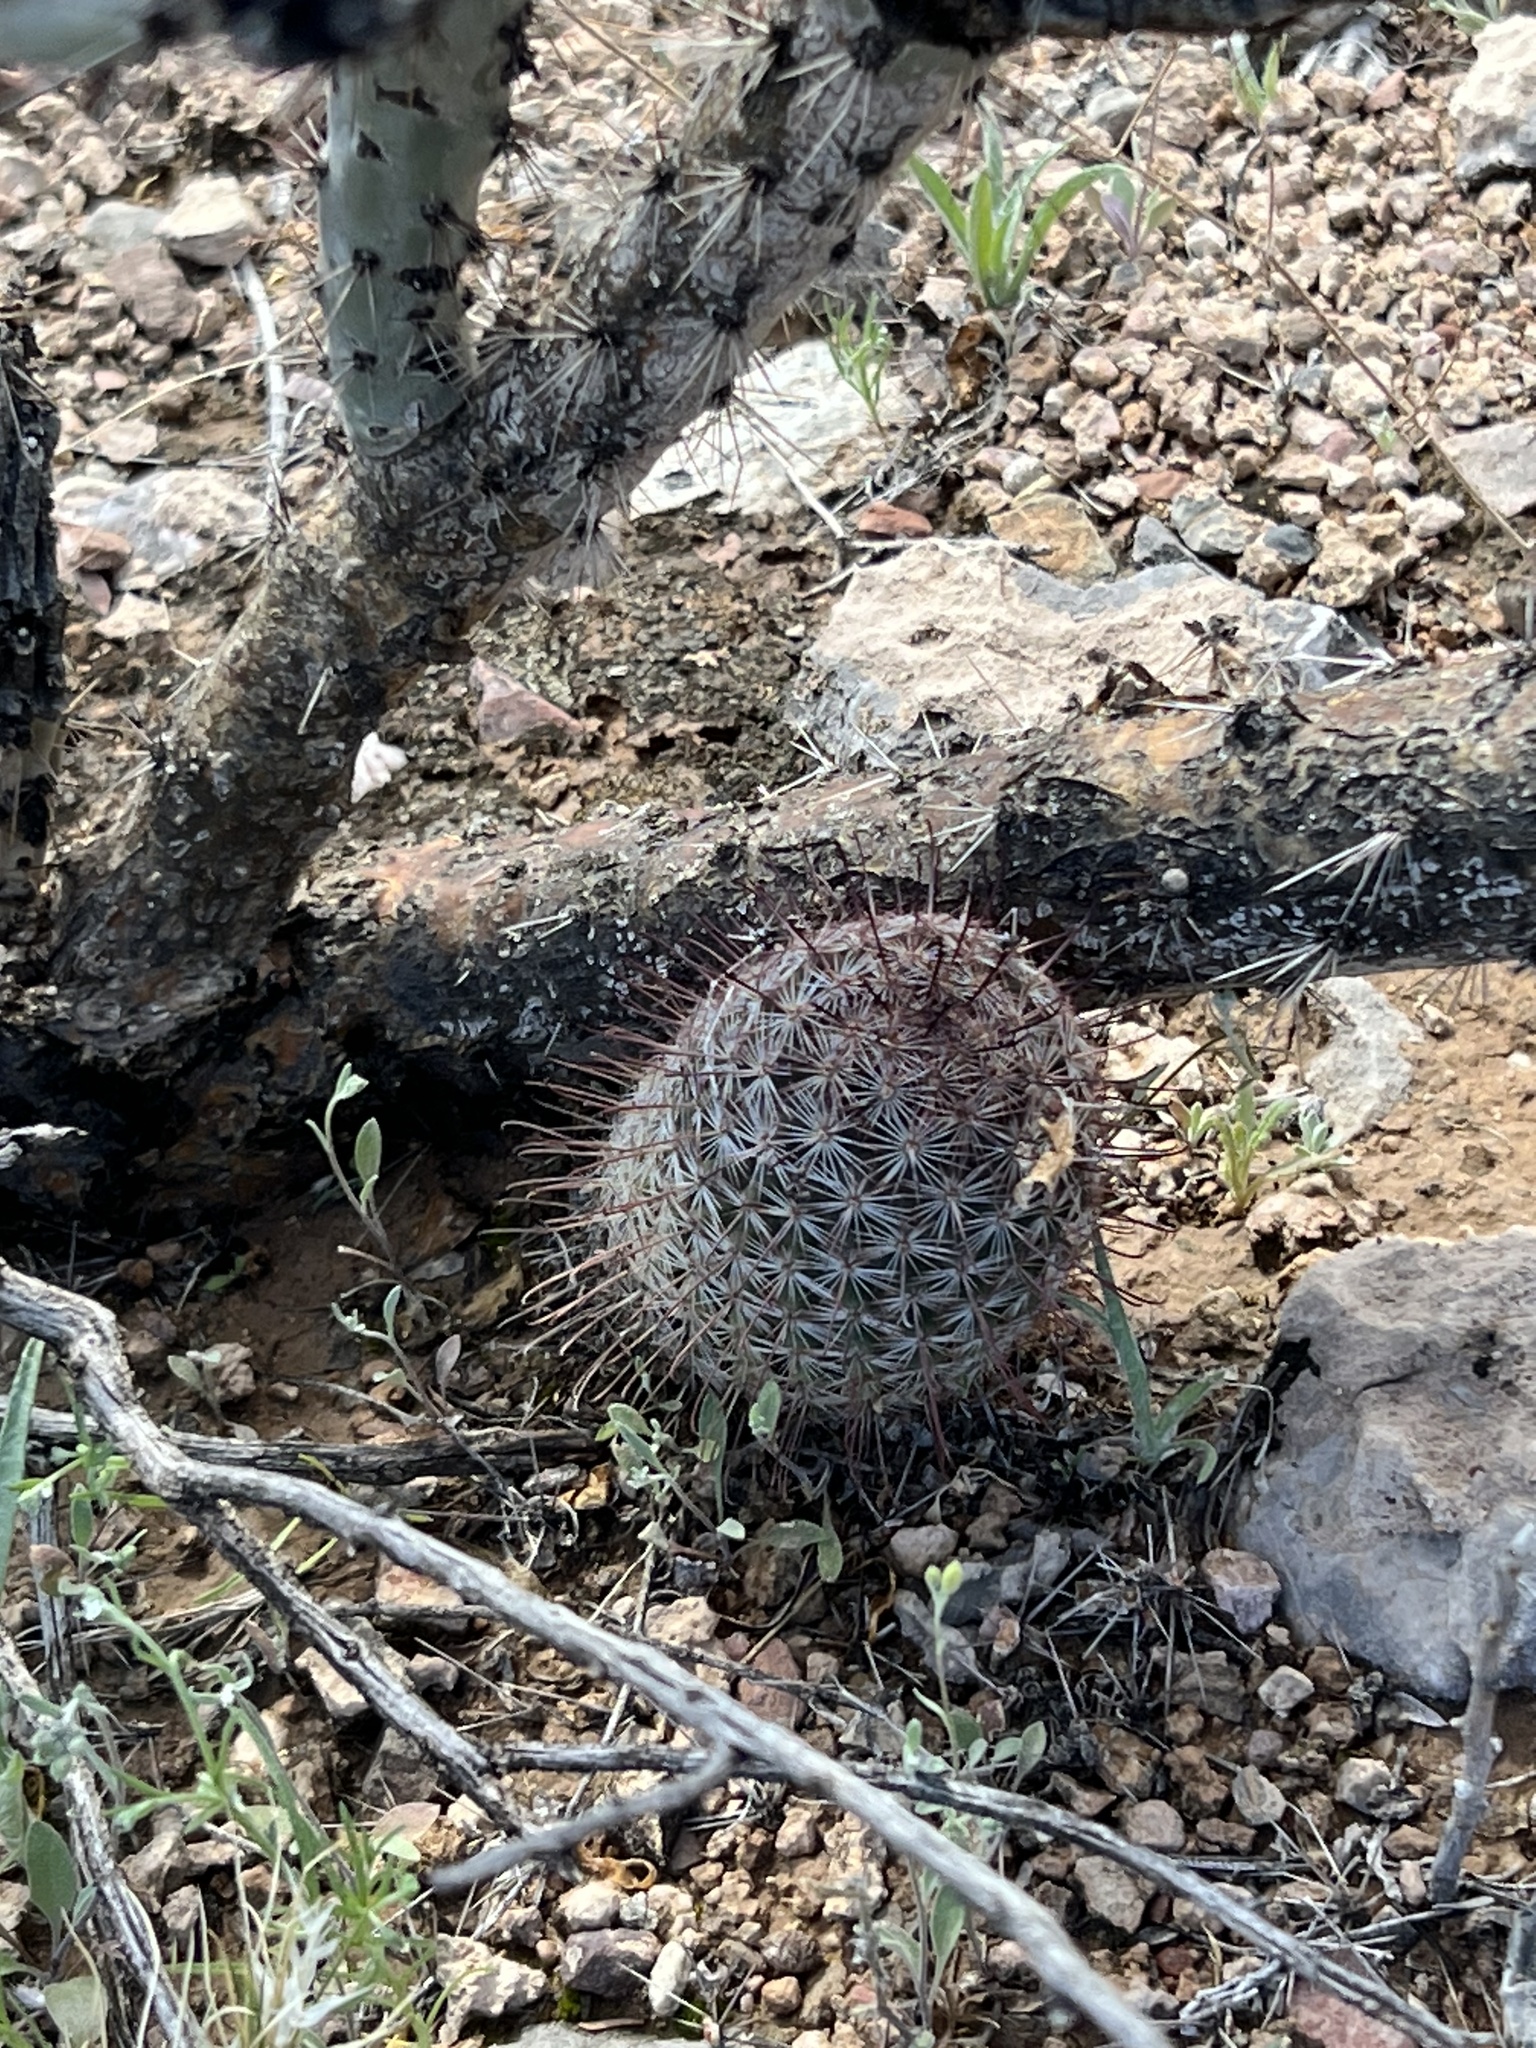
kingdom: Plantae
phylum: Tracheophyta
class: Magnoliopsida
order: Caryophyllales
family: Cactaceae
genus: Cochemiea
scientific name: Cochemiea grahamii
